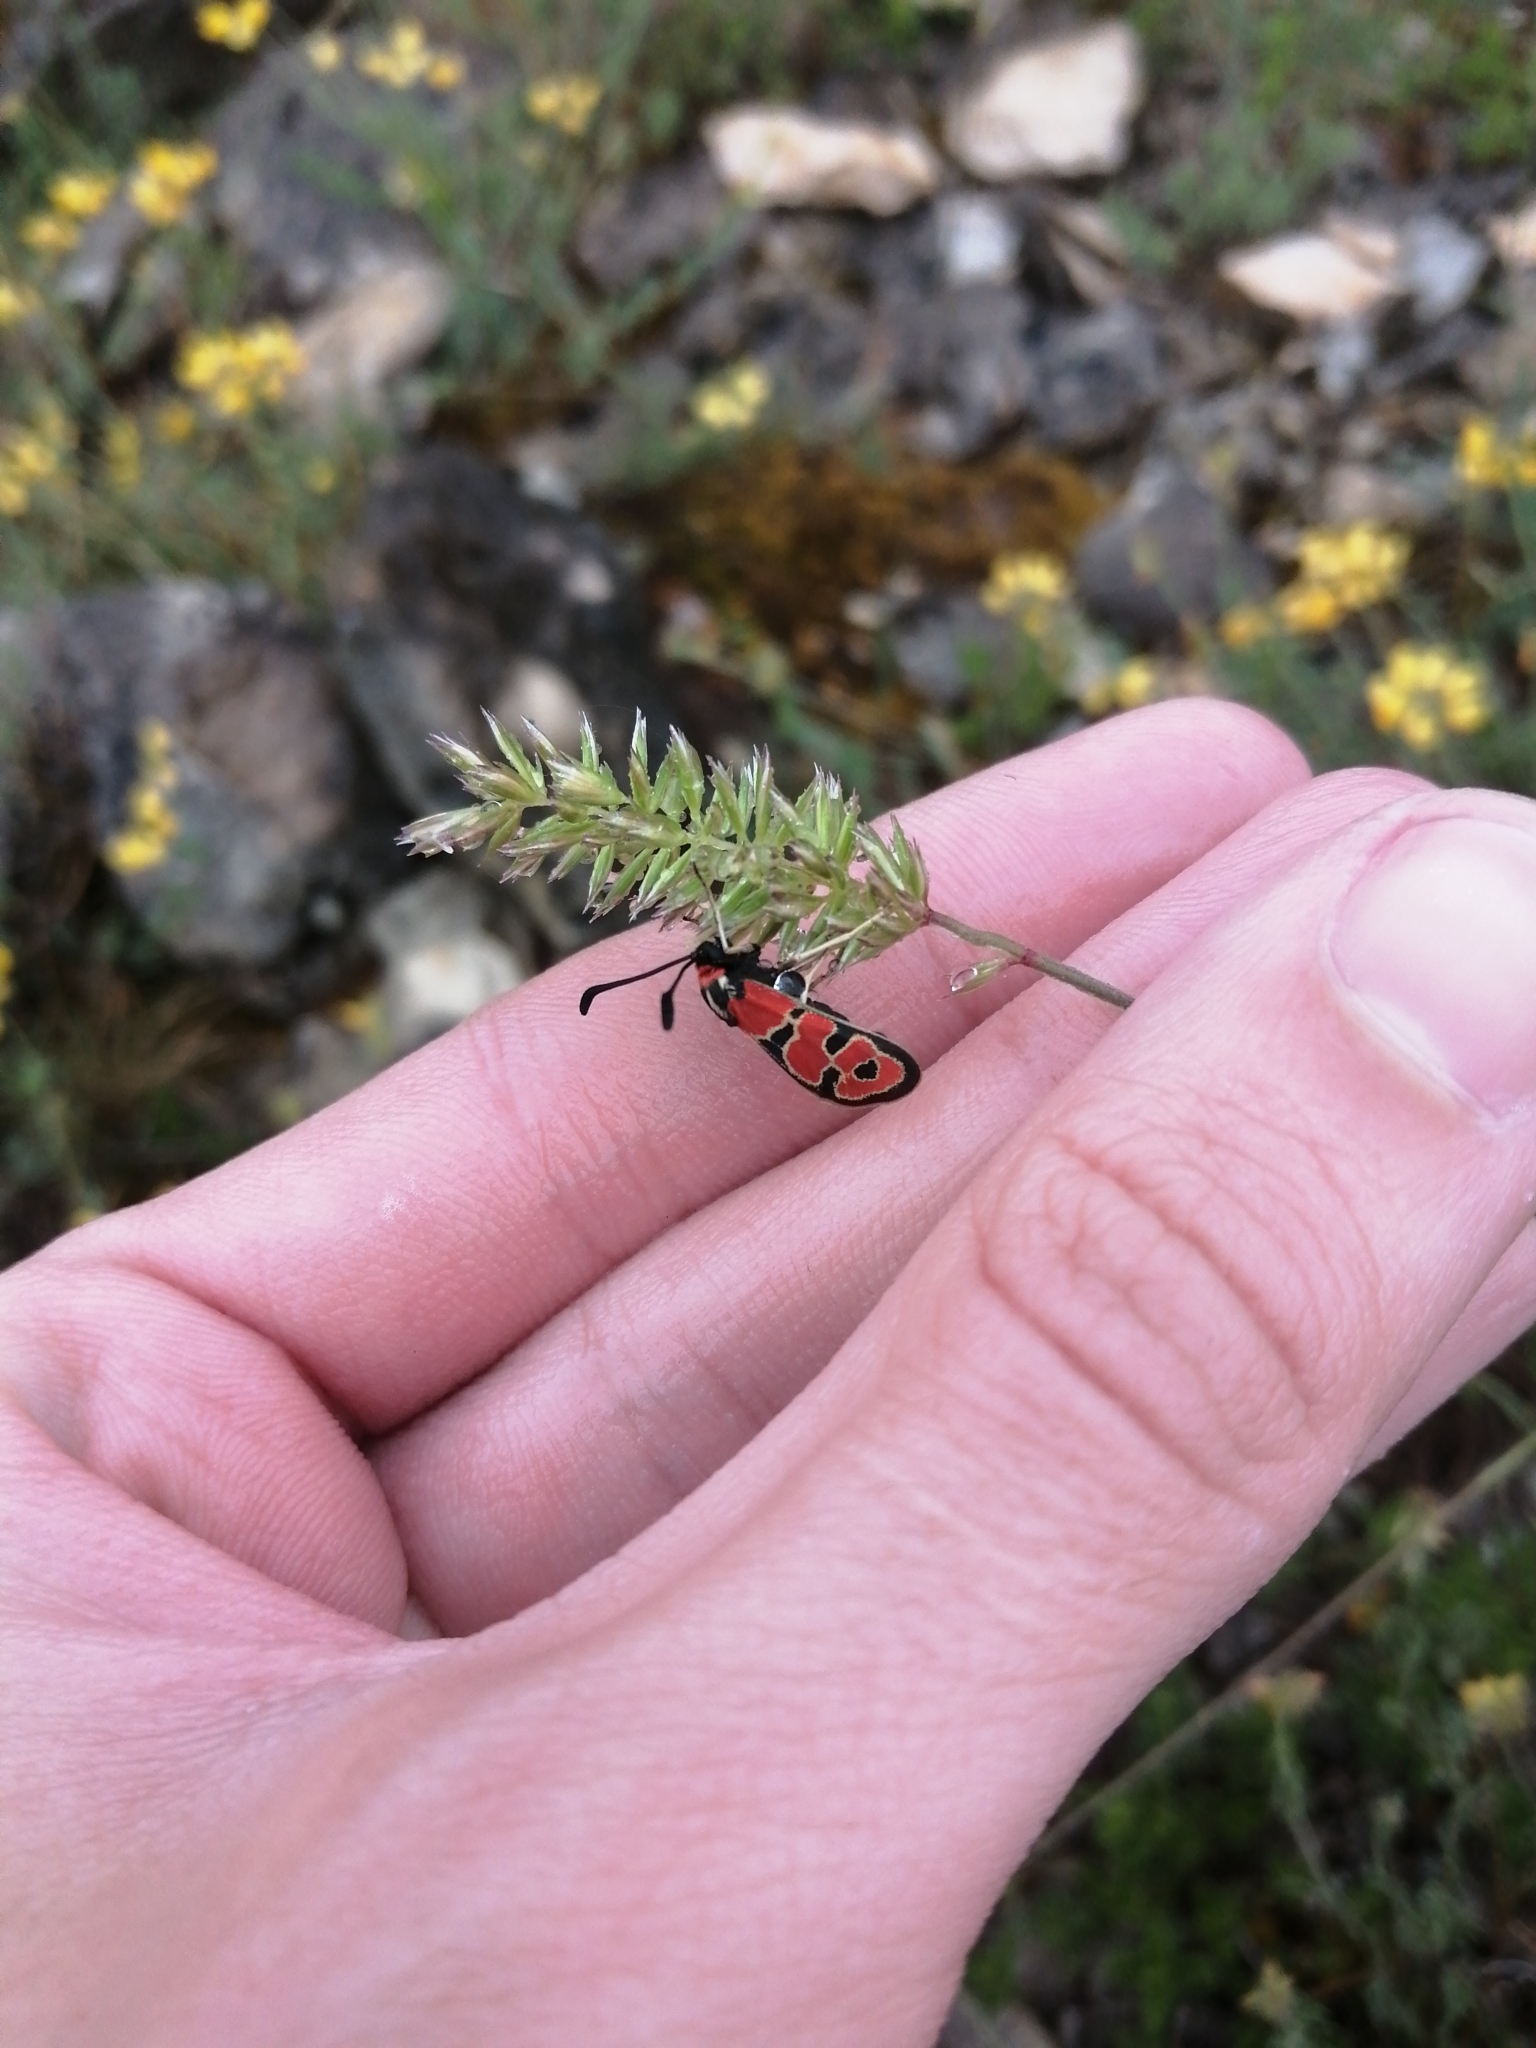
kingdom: Animalia
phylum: Arthropoda
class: Insecta
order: Lepidoptera
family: Zygaenidae
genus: Zygaena
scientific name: Zygaena fausta
